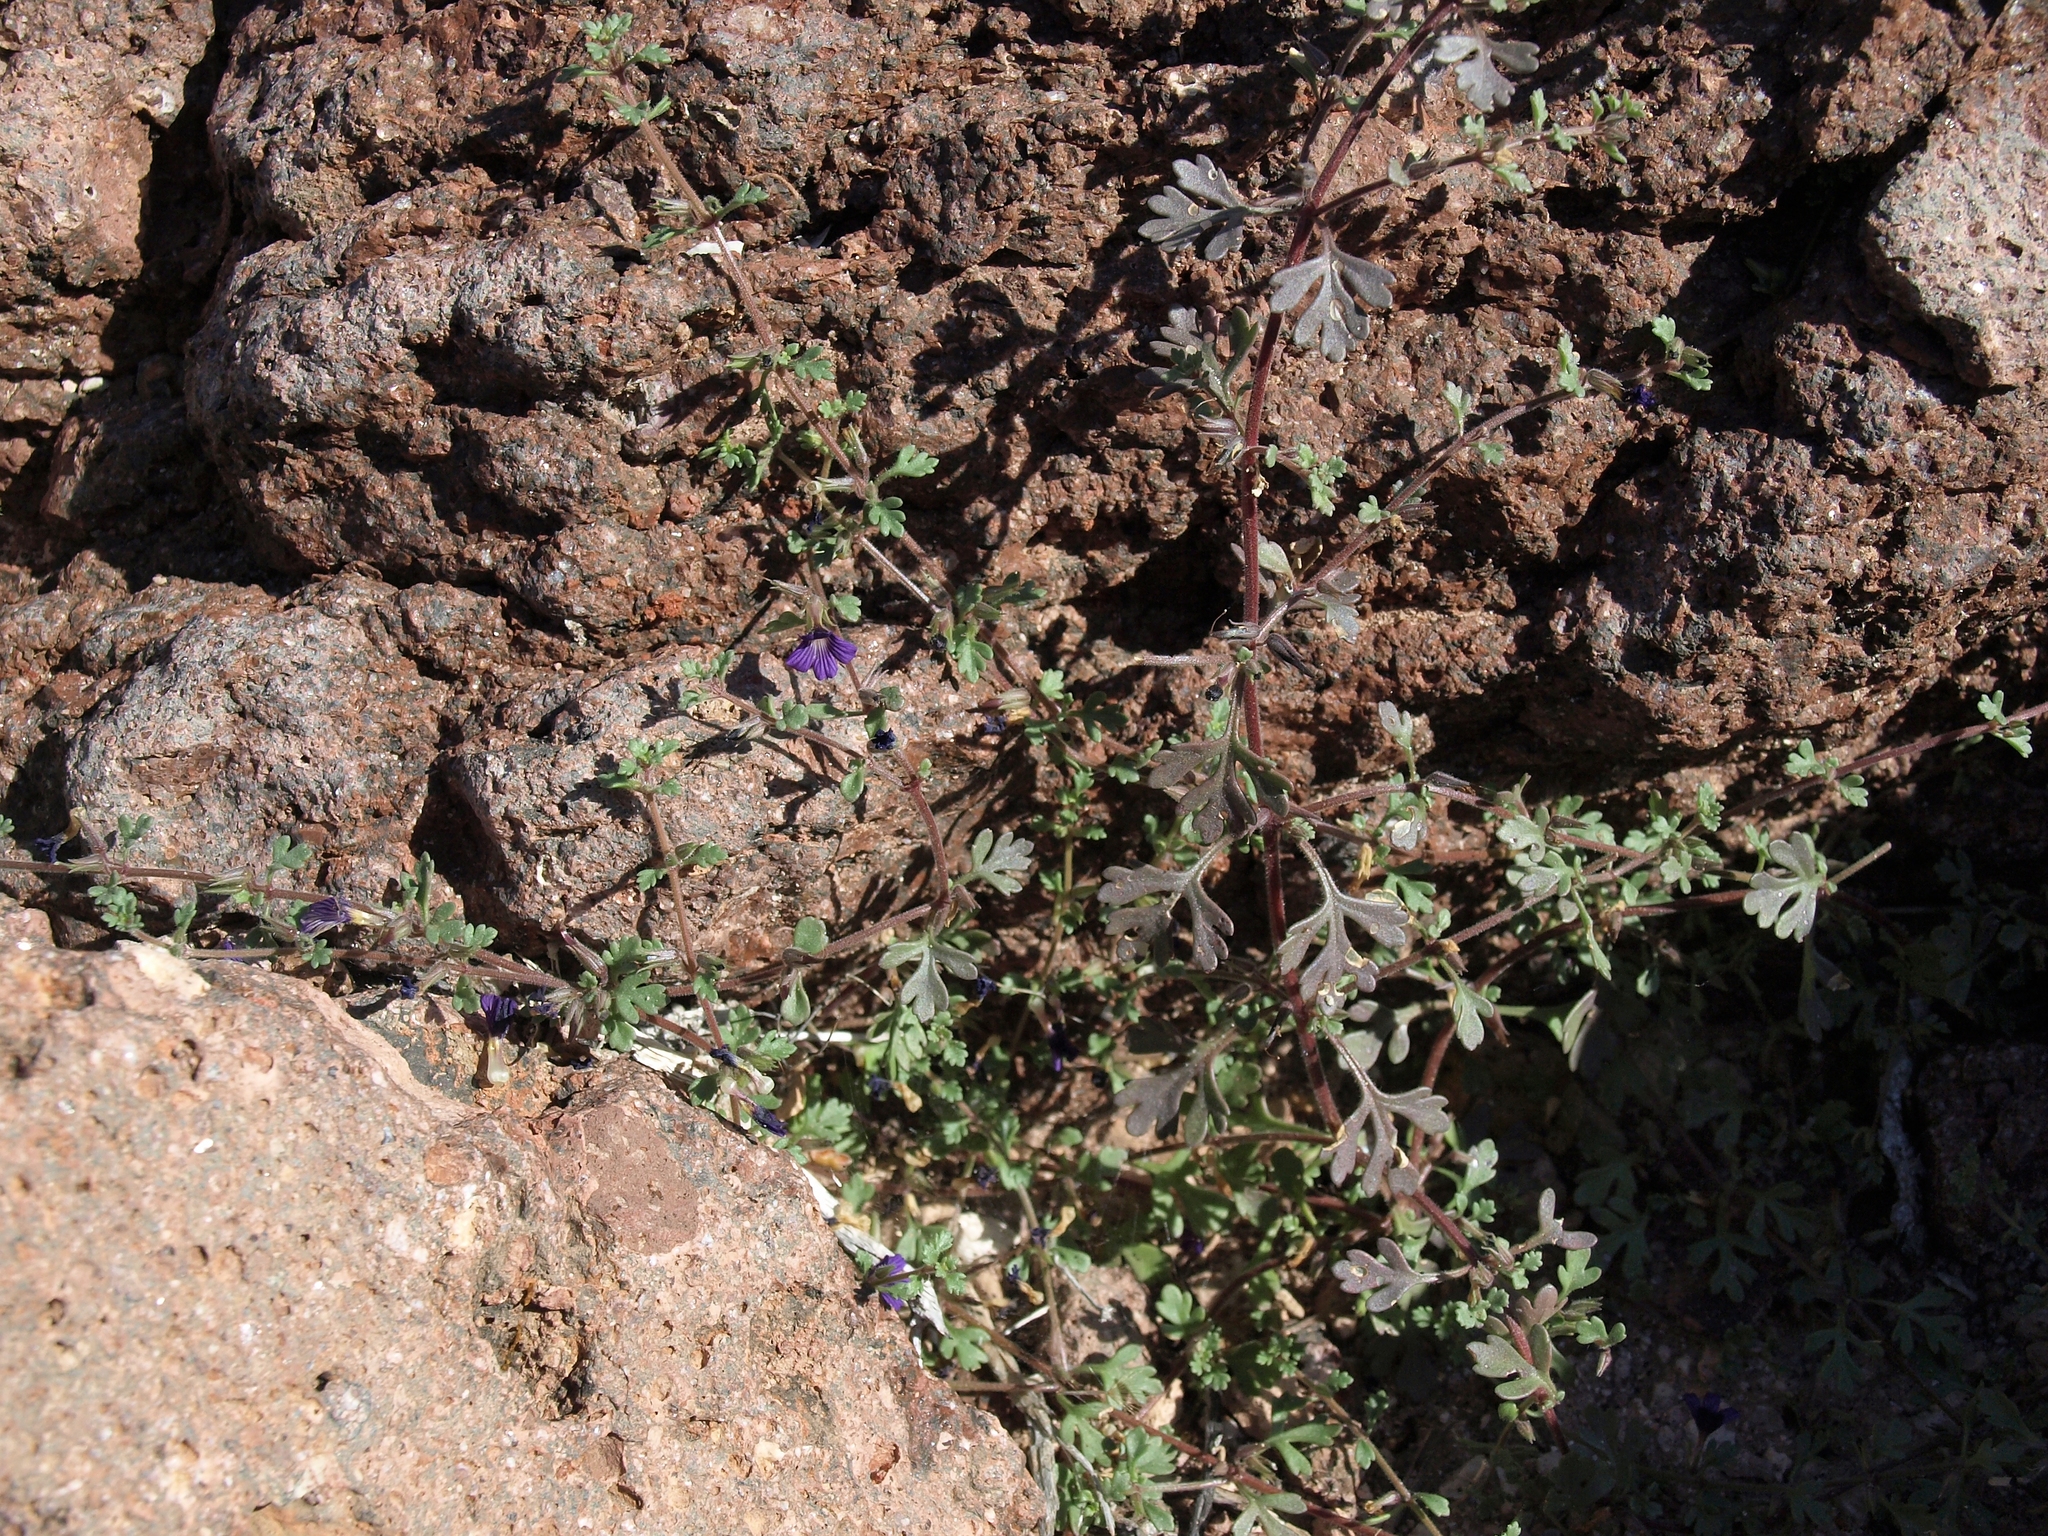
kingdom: Plantae
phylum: Tracheophyta
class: Magnoliopsida
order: Lamiales
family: Plantaginaceae
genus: Schistophragma
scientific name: Schistophragma polystachyum
